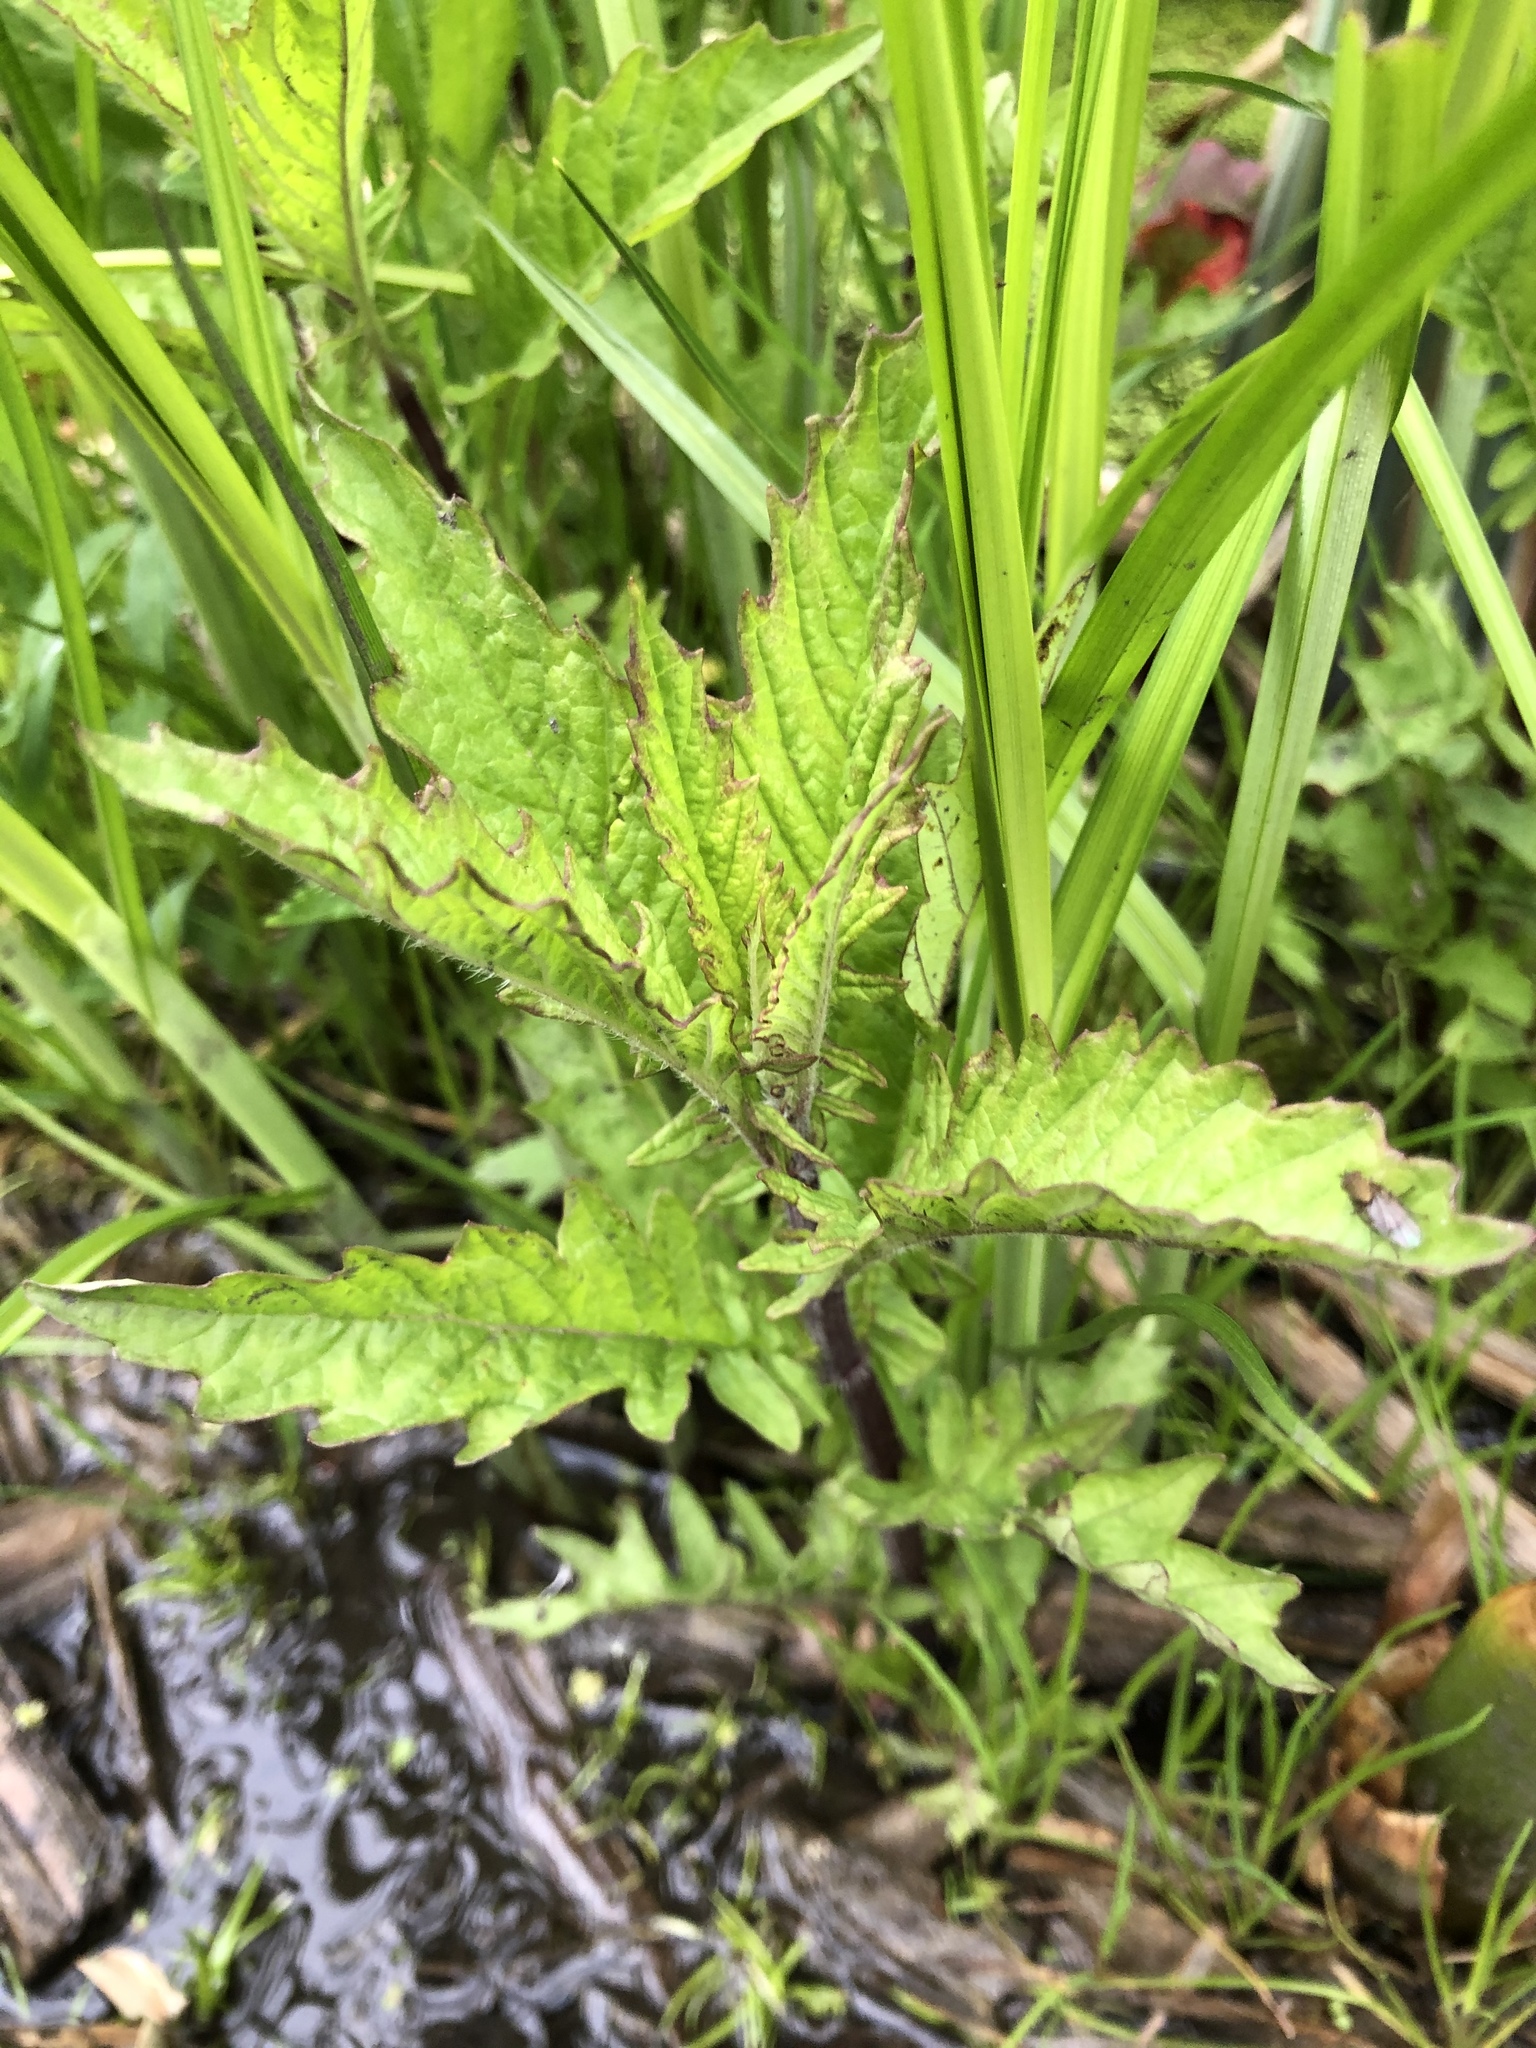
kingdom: Plantae
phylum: Tracheophyta
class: Magnoliopsida
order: Lamiales
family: Lamiaceae
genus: Lycopus
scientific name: Lycopus europaeus
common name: European bugleweed
